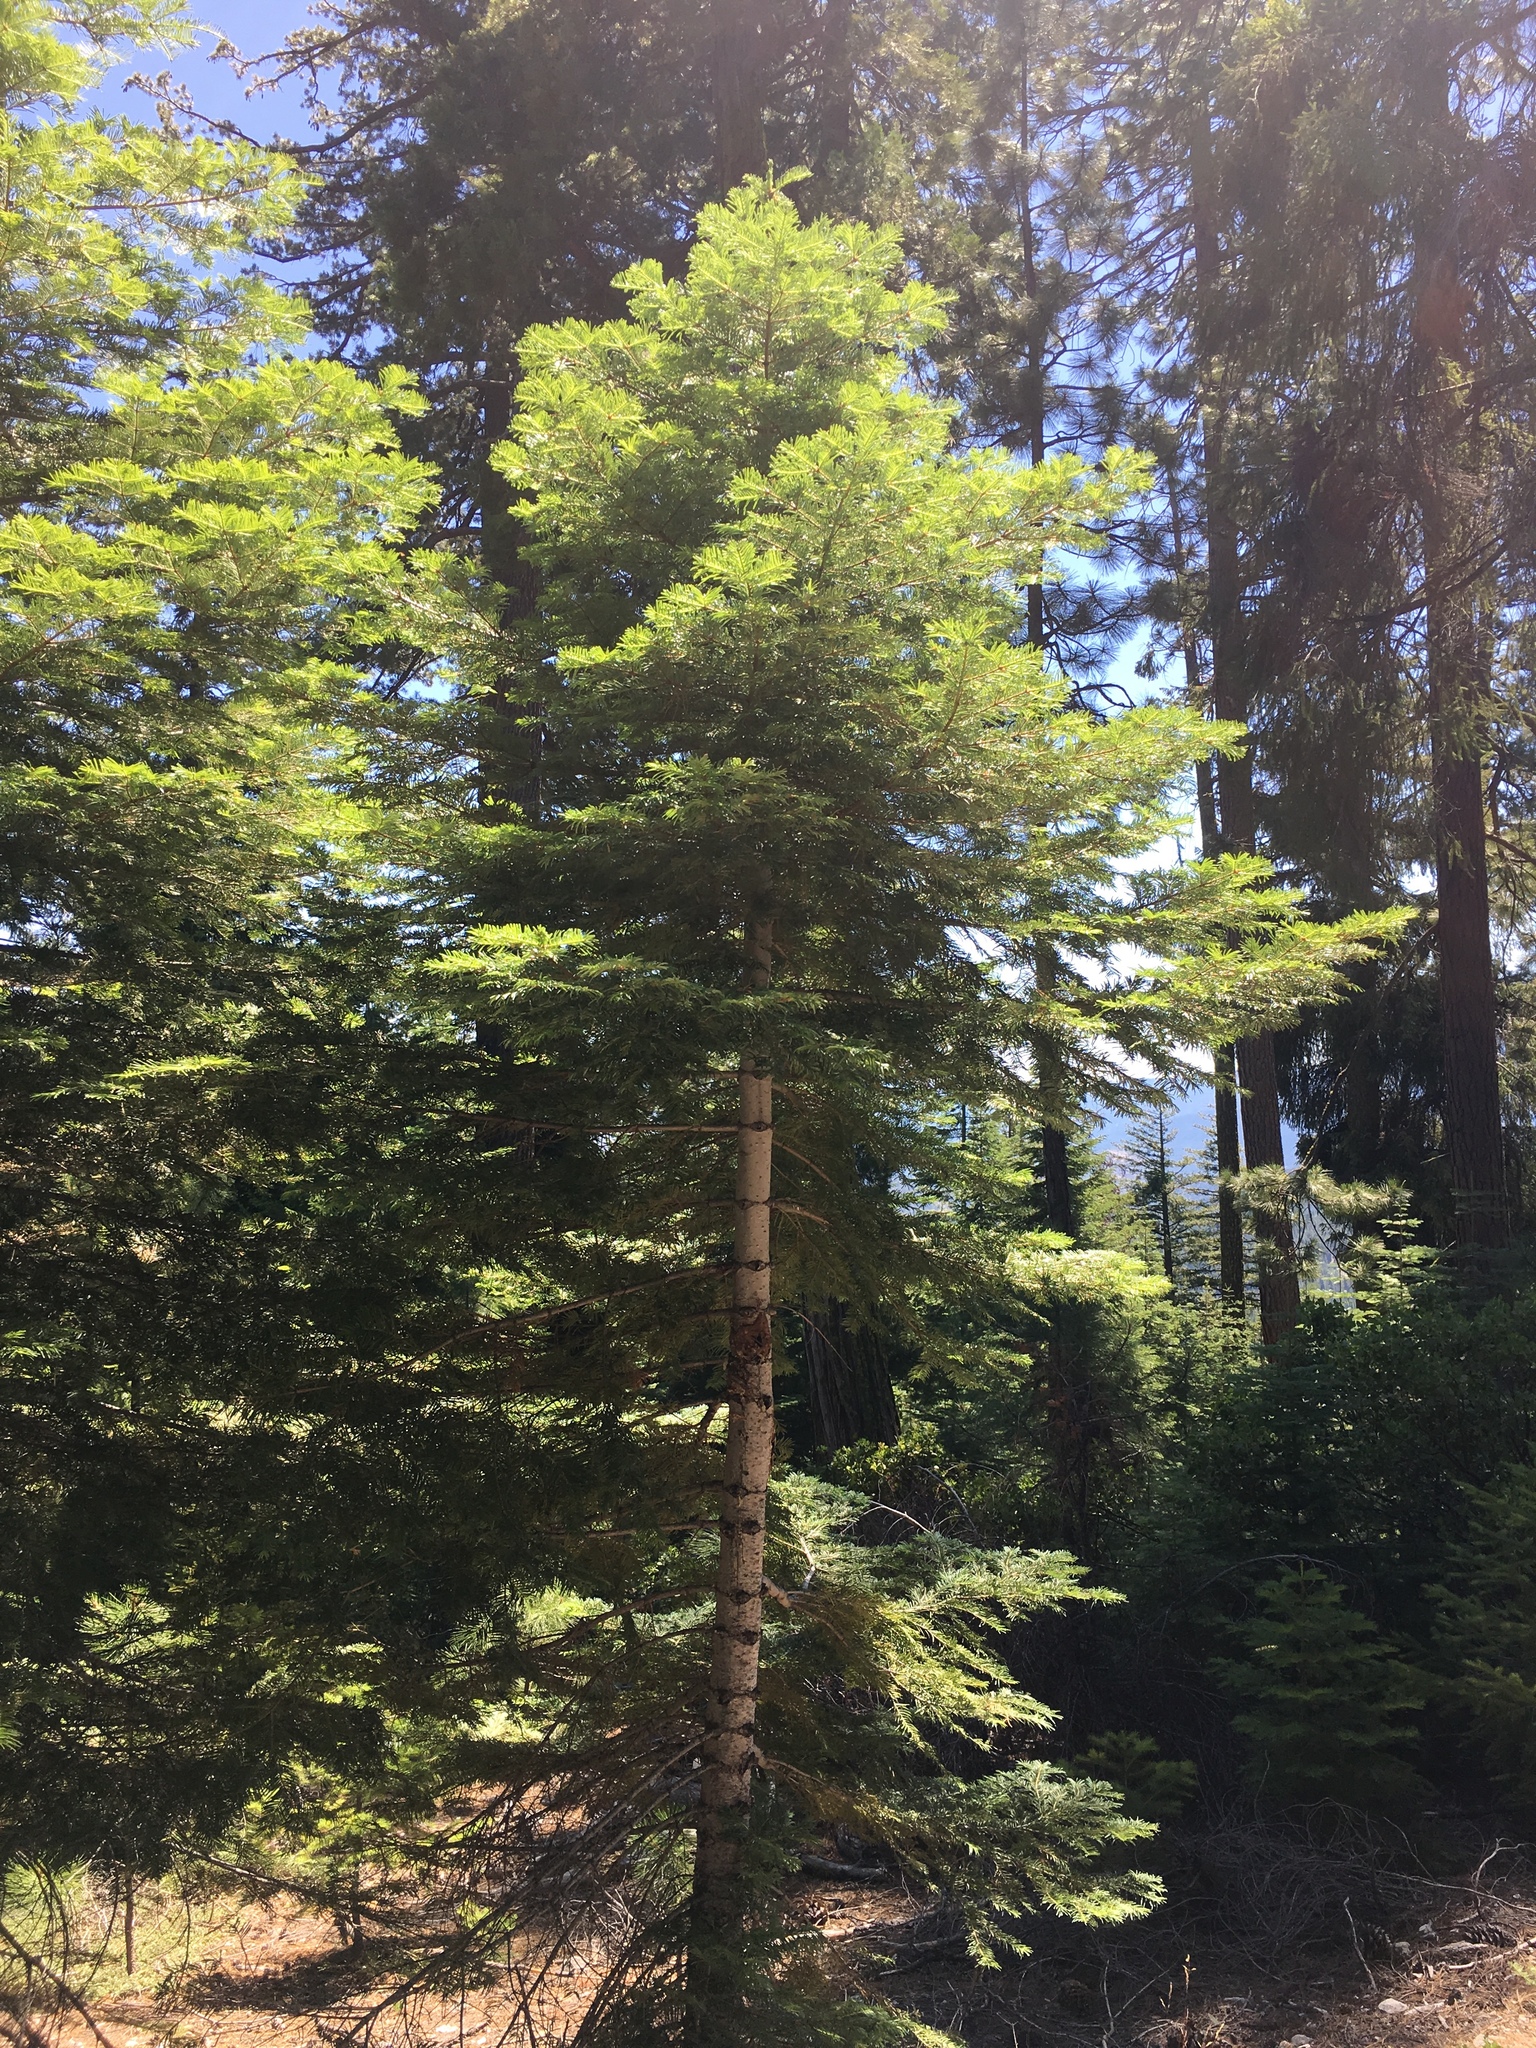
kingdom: Plantae
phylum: Tracheophyta
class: Pinopsida
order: Pinales
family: Pinaceae
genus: Abies
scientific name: Abies concolor
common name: Colorado fir
